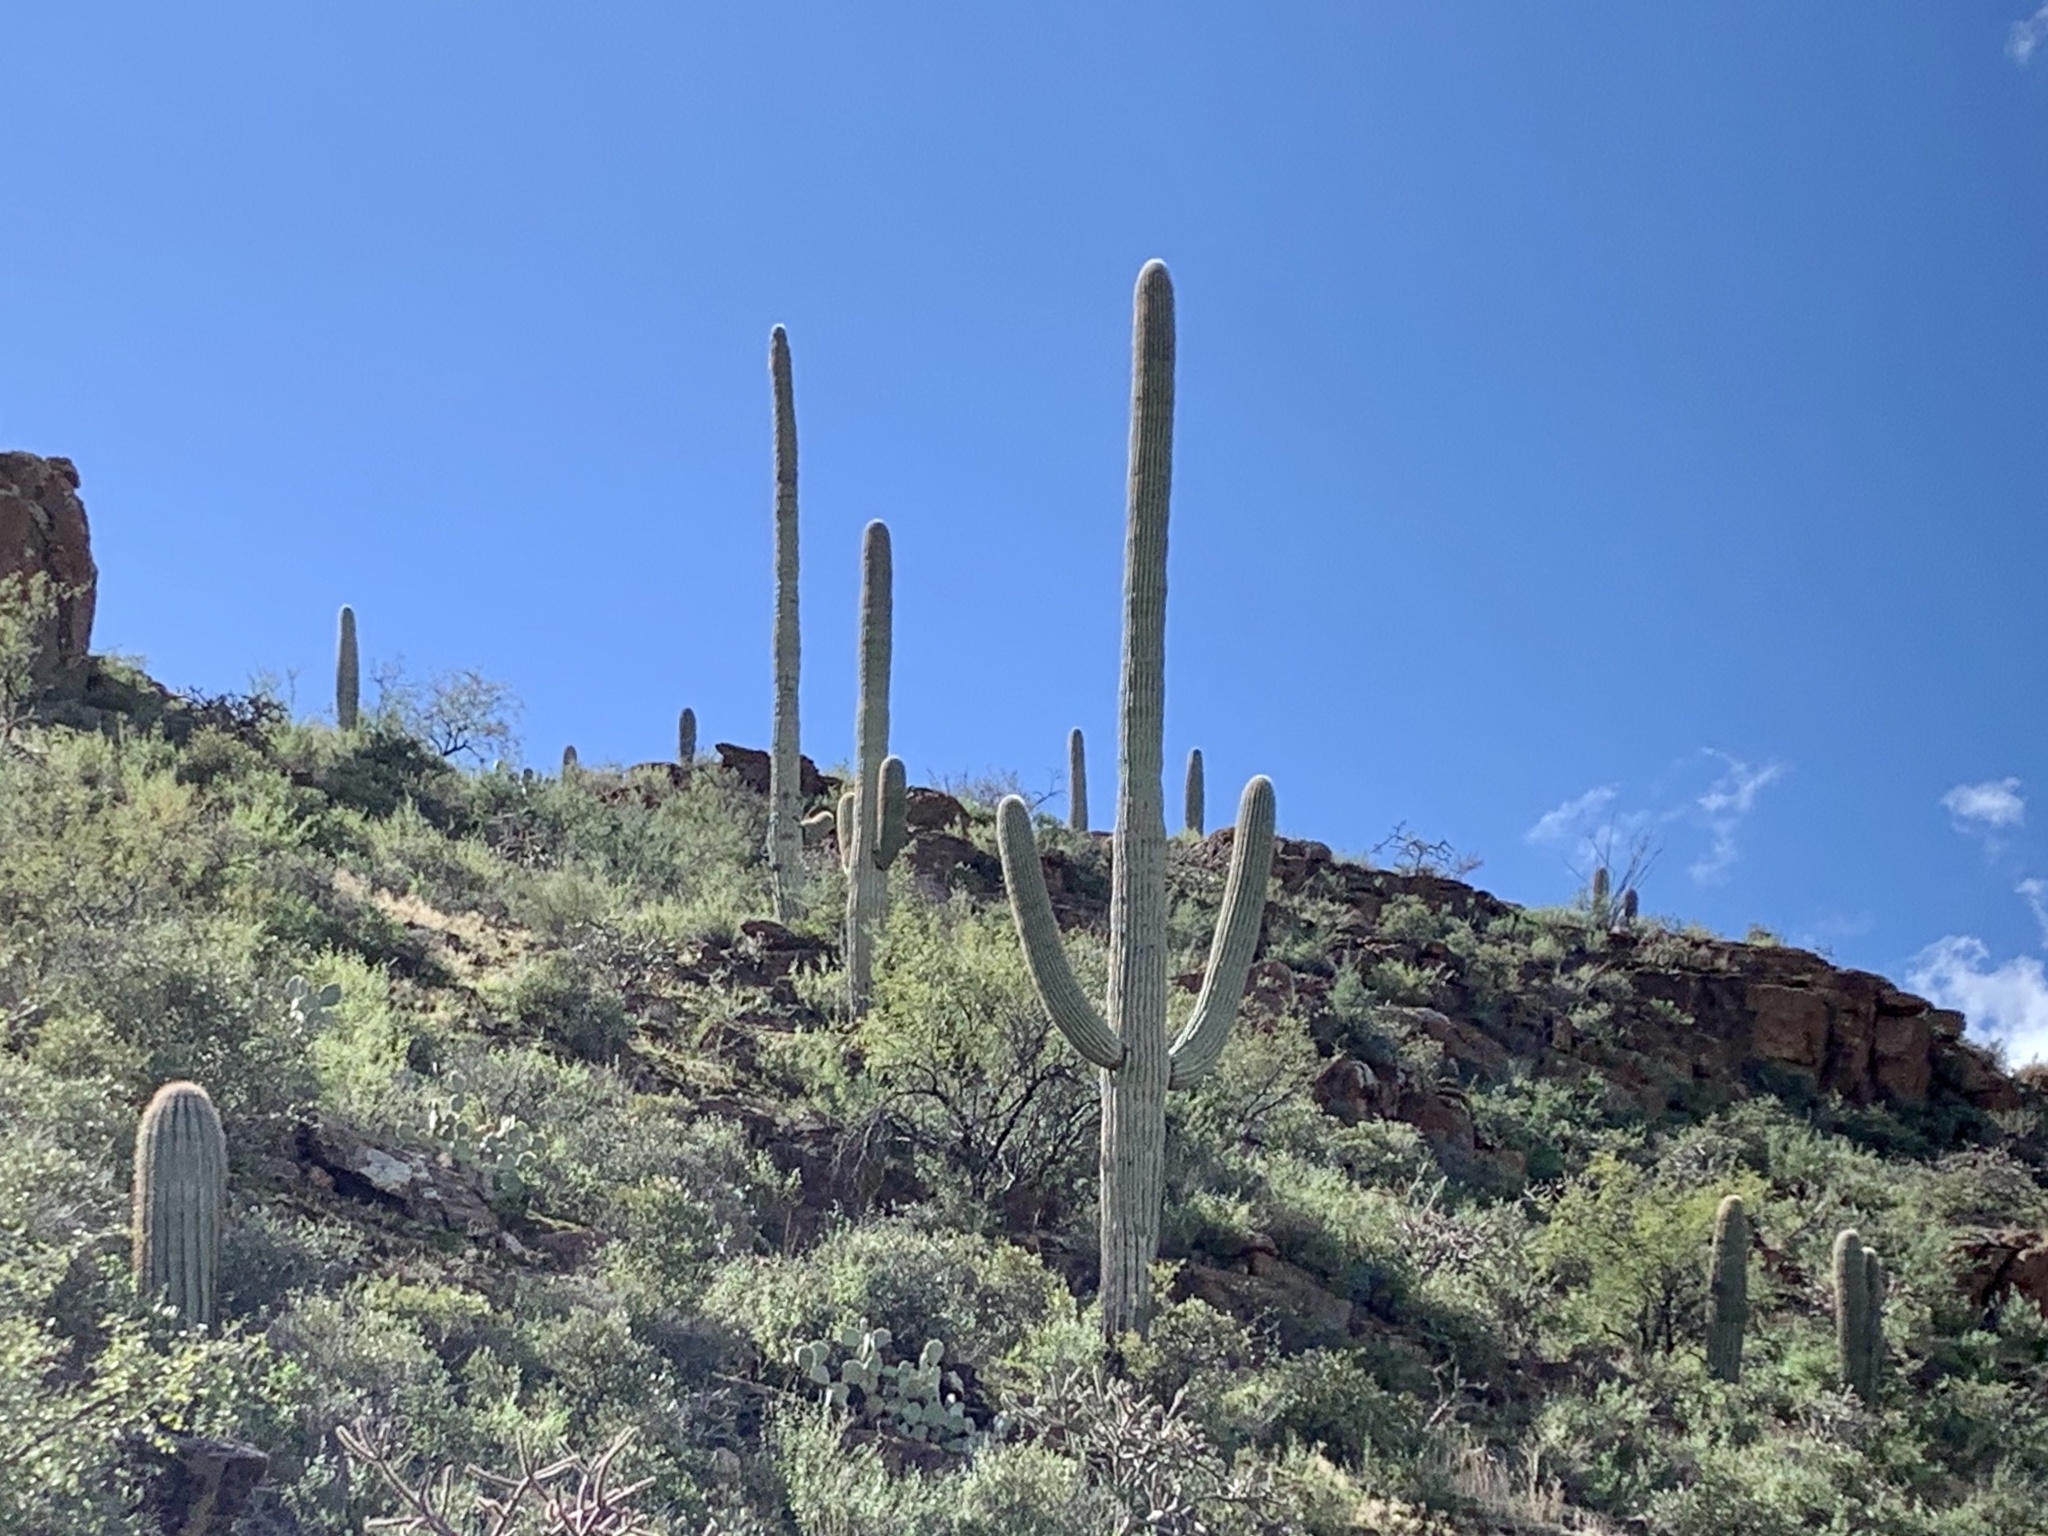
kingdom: Plantae
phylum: Tracheophyta
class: Magnoliopsida
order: Caryophyllales
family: Cactaceae
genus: Carnegiea
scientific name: Carnegiea gigantea
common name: Saguaro
